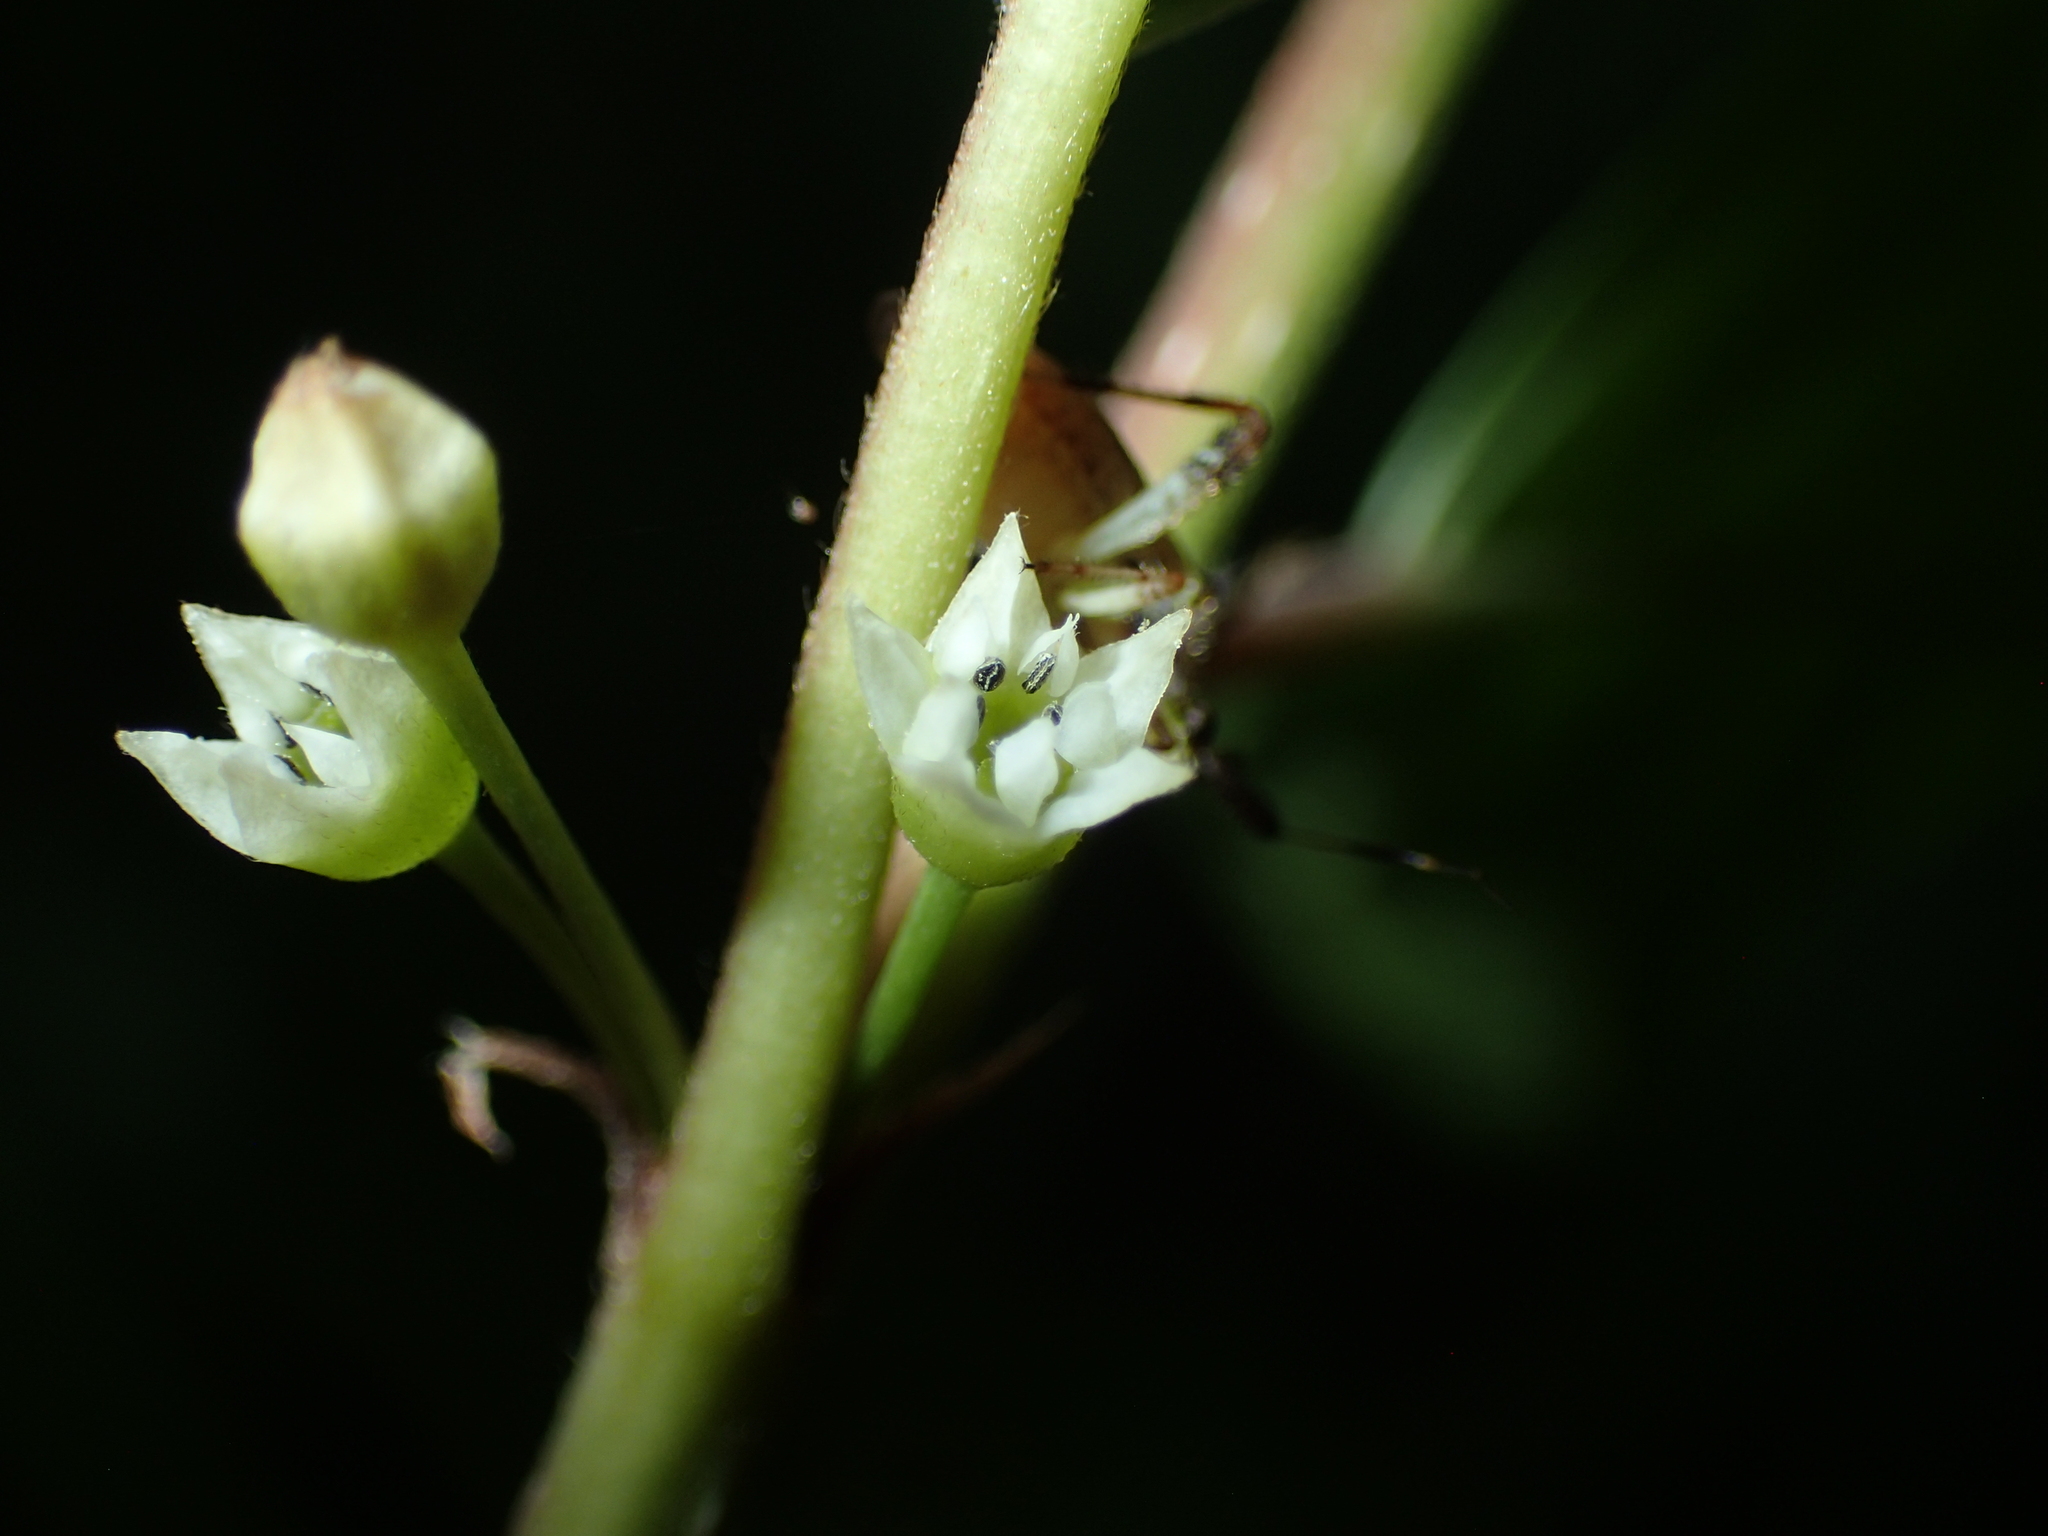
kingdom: Plantae
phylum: Tracheophyta
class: Magnoliopsida
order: Rosales
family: Rhamnaceae
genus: Frangula
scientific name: Frangula alnus
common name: Alder buckthorn
